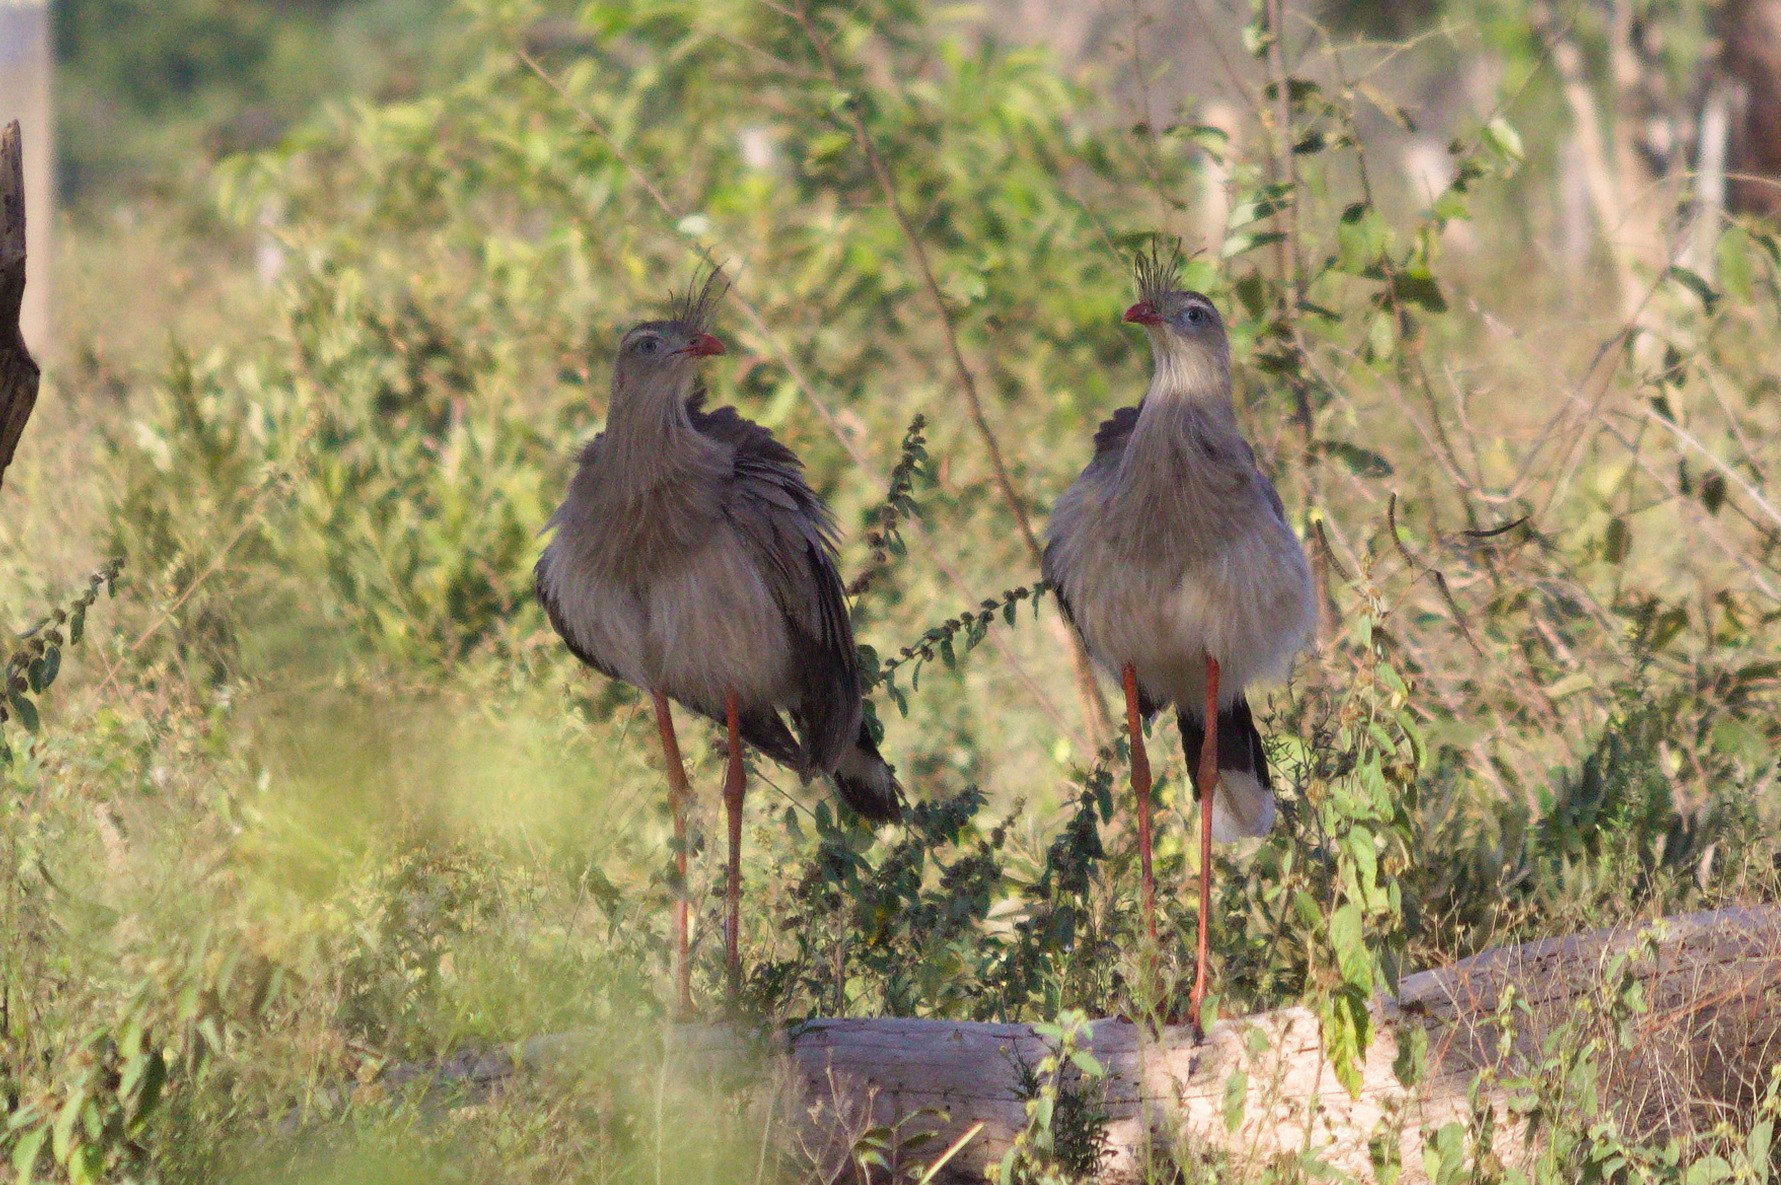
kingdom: Animalia
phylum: Chordata
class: Aves
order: Cariamiformes
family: Cariamidae
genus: Cariama
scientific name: Cariama cristata
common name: Red-legged seriema
